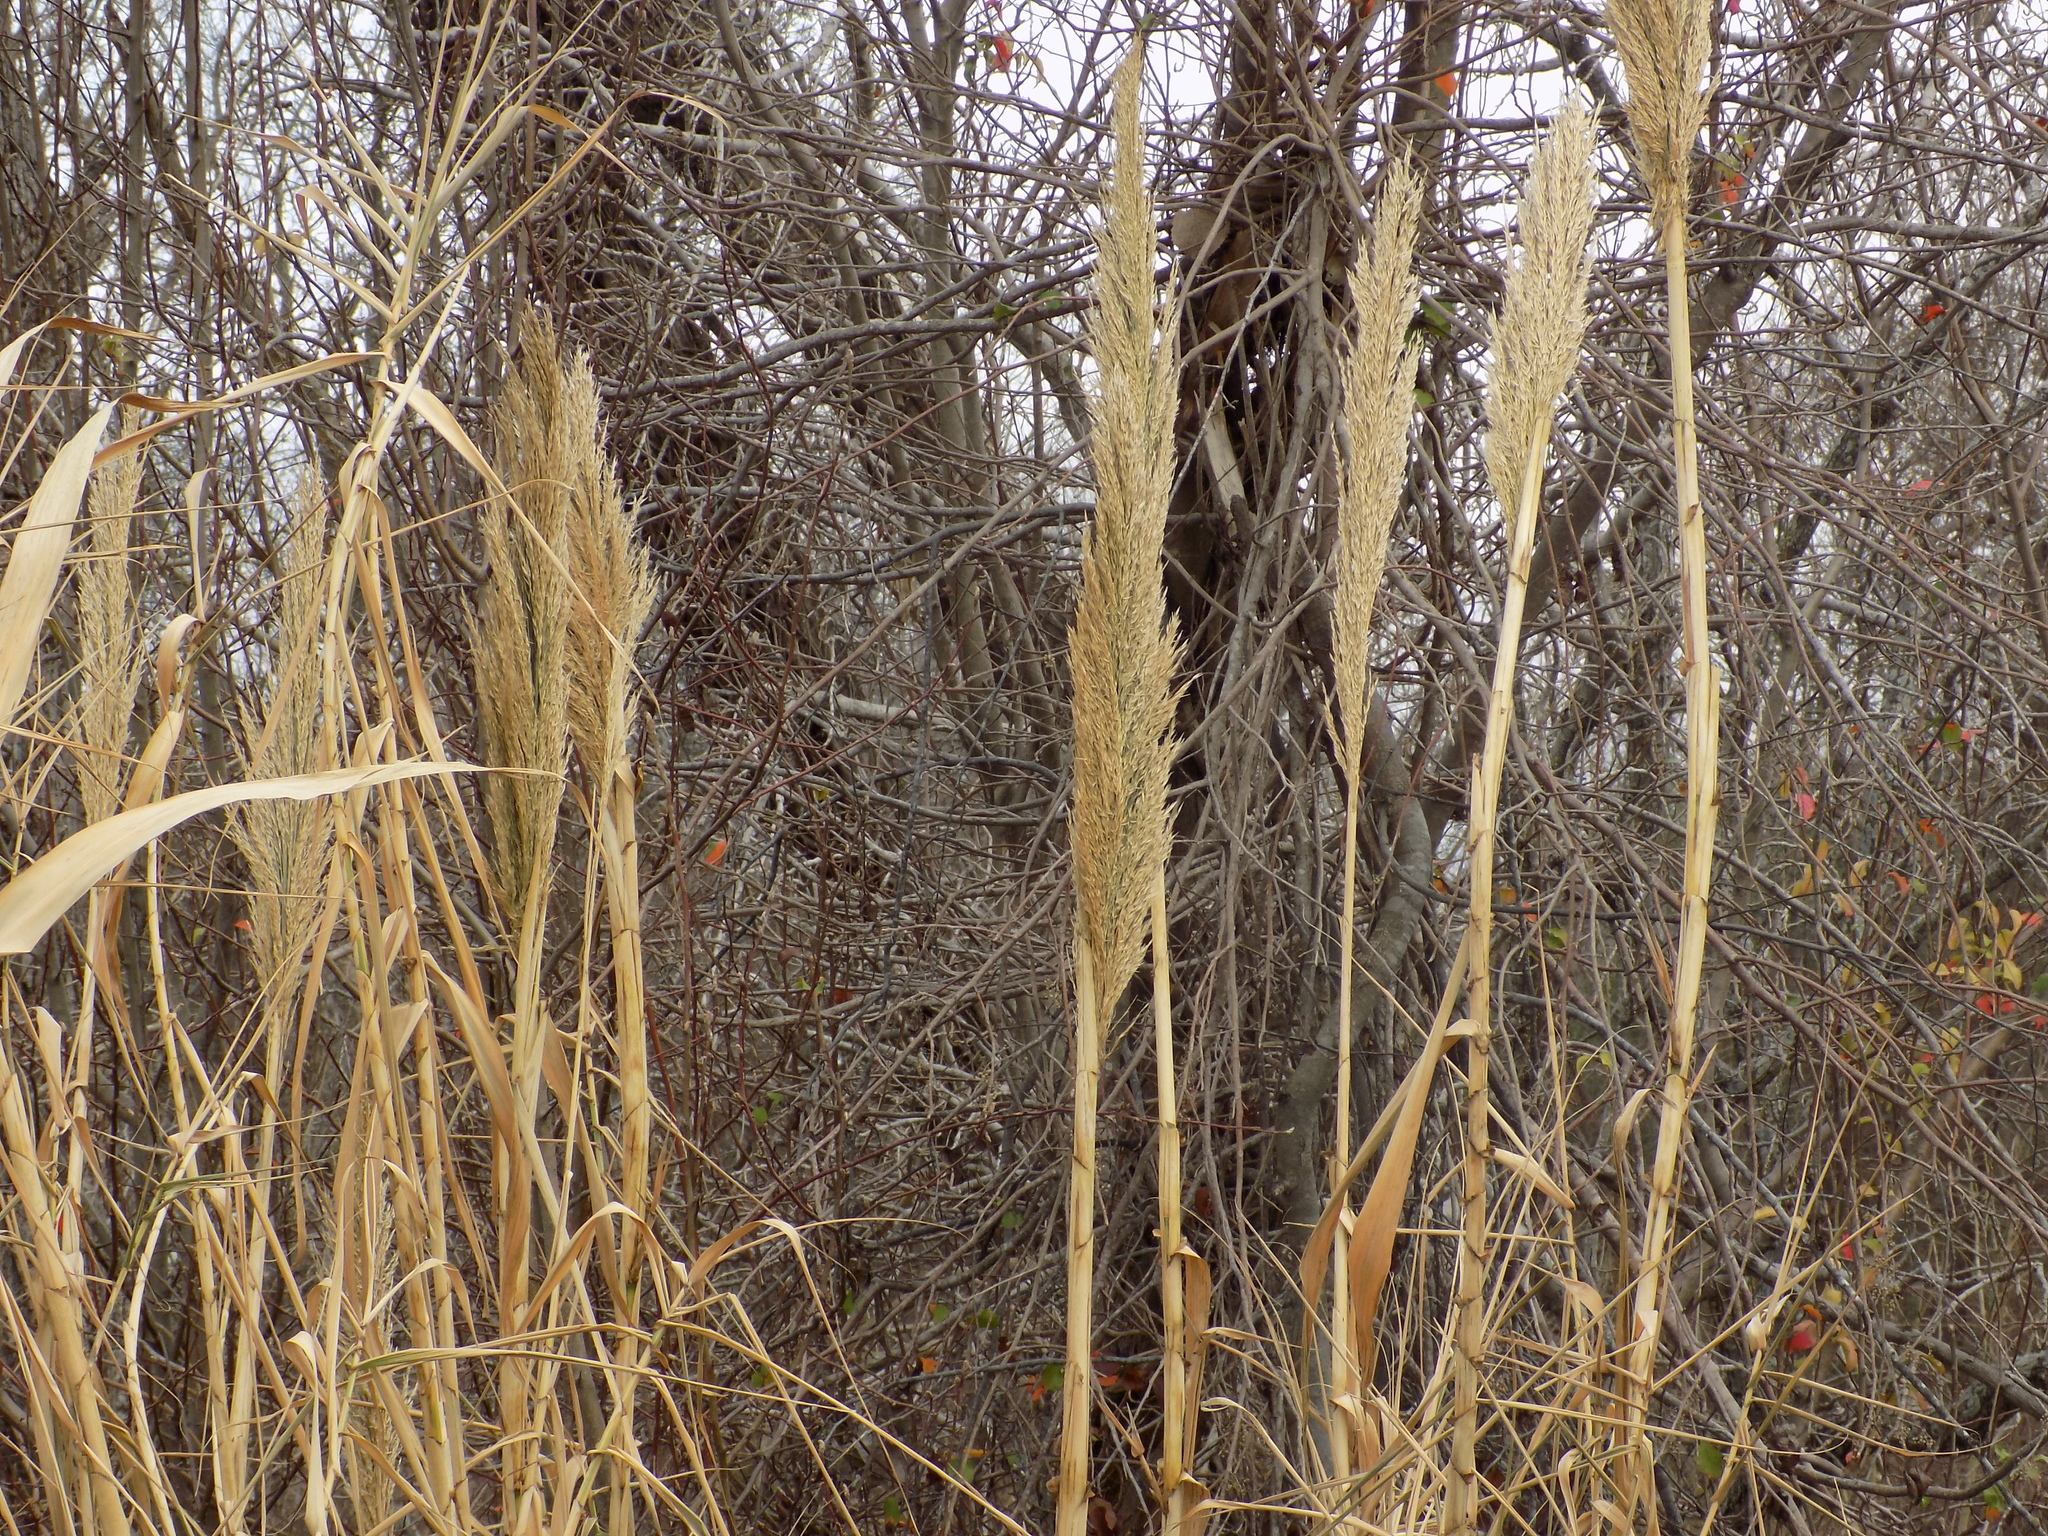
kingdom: Plantae
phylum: Tracheophyta
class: Liliopsida
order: Poales
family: Poaceae
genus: Arundo
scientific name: Arundo donax
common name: Giant reed
